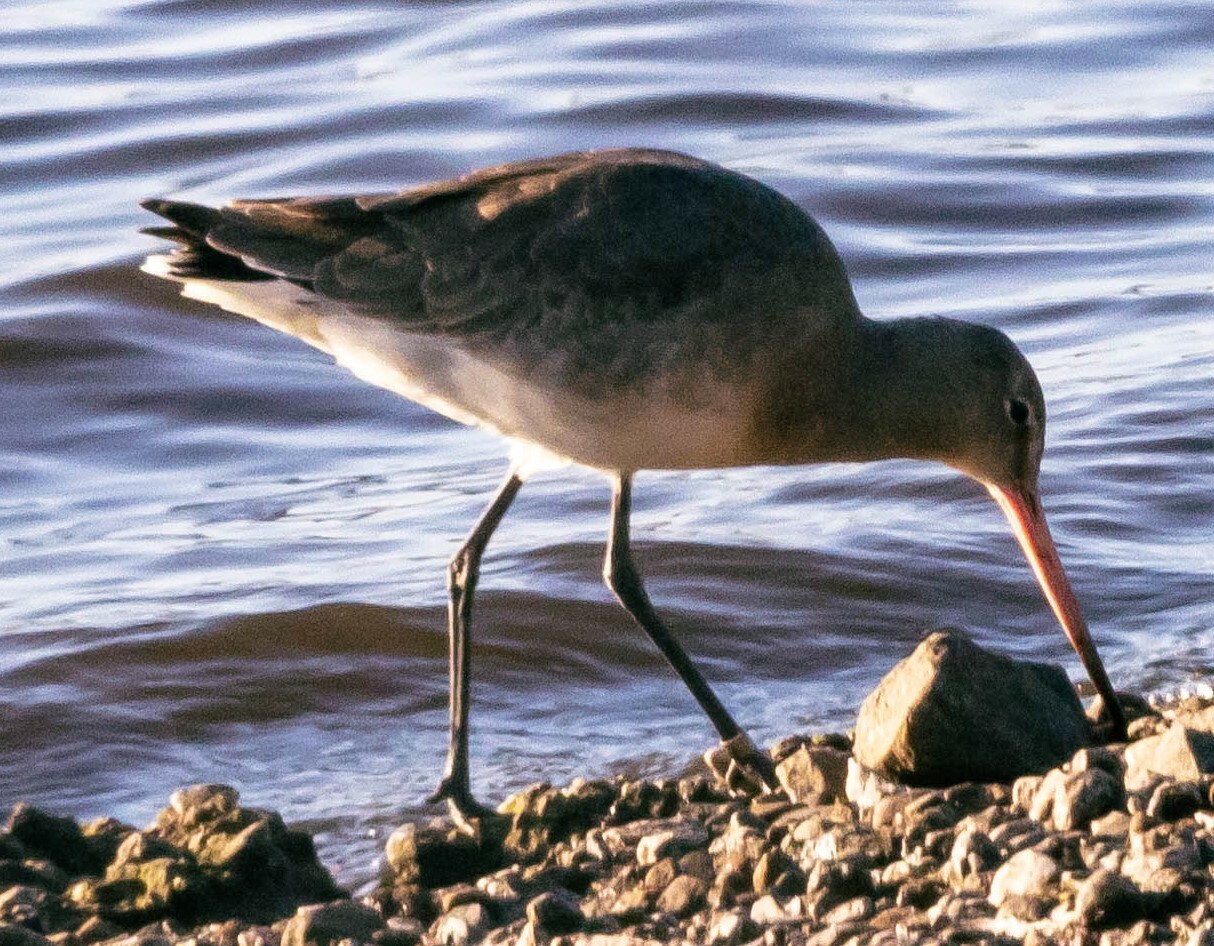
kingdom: Animalia
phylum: Chordata
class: Aves
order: Charadriiformes
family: Scolopacidae
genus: Limosa
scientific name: Limosa limosa
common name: Black-tailed godwit
